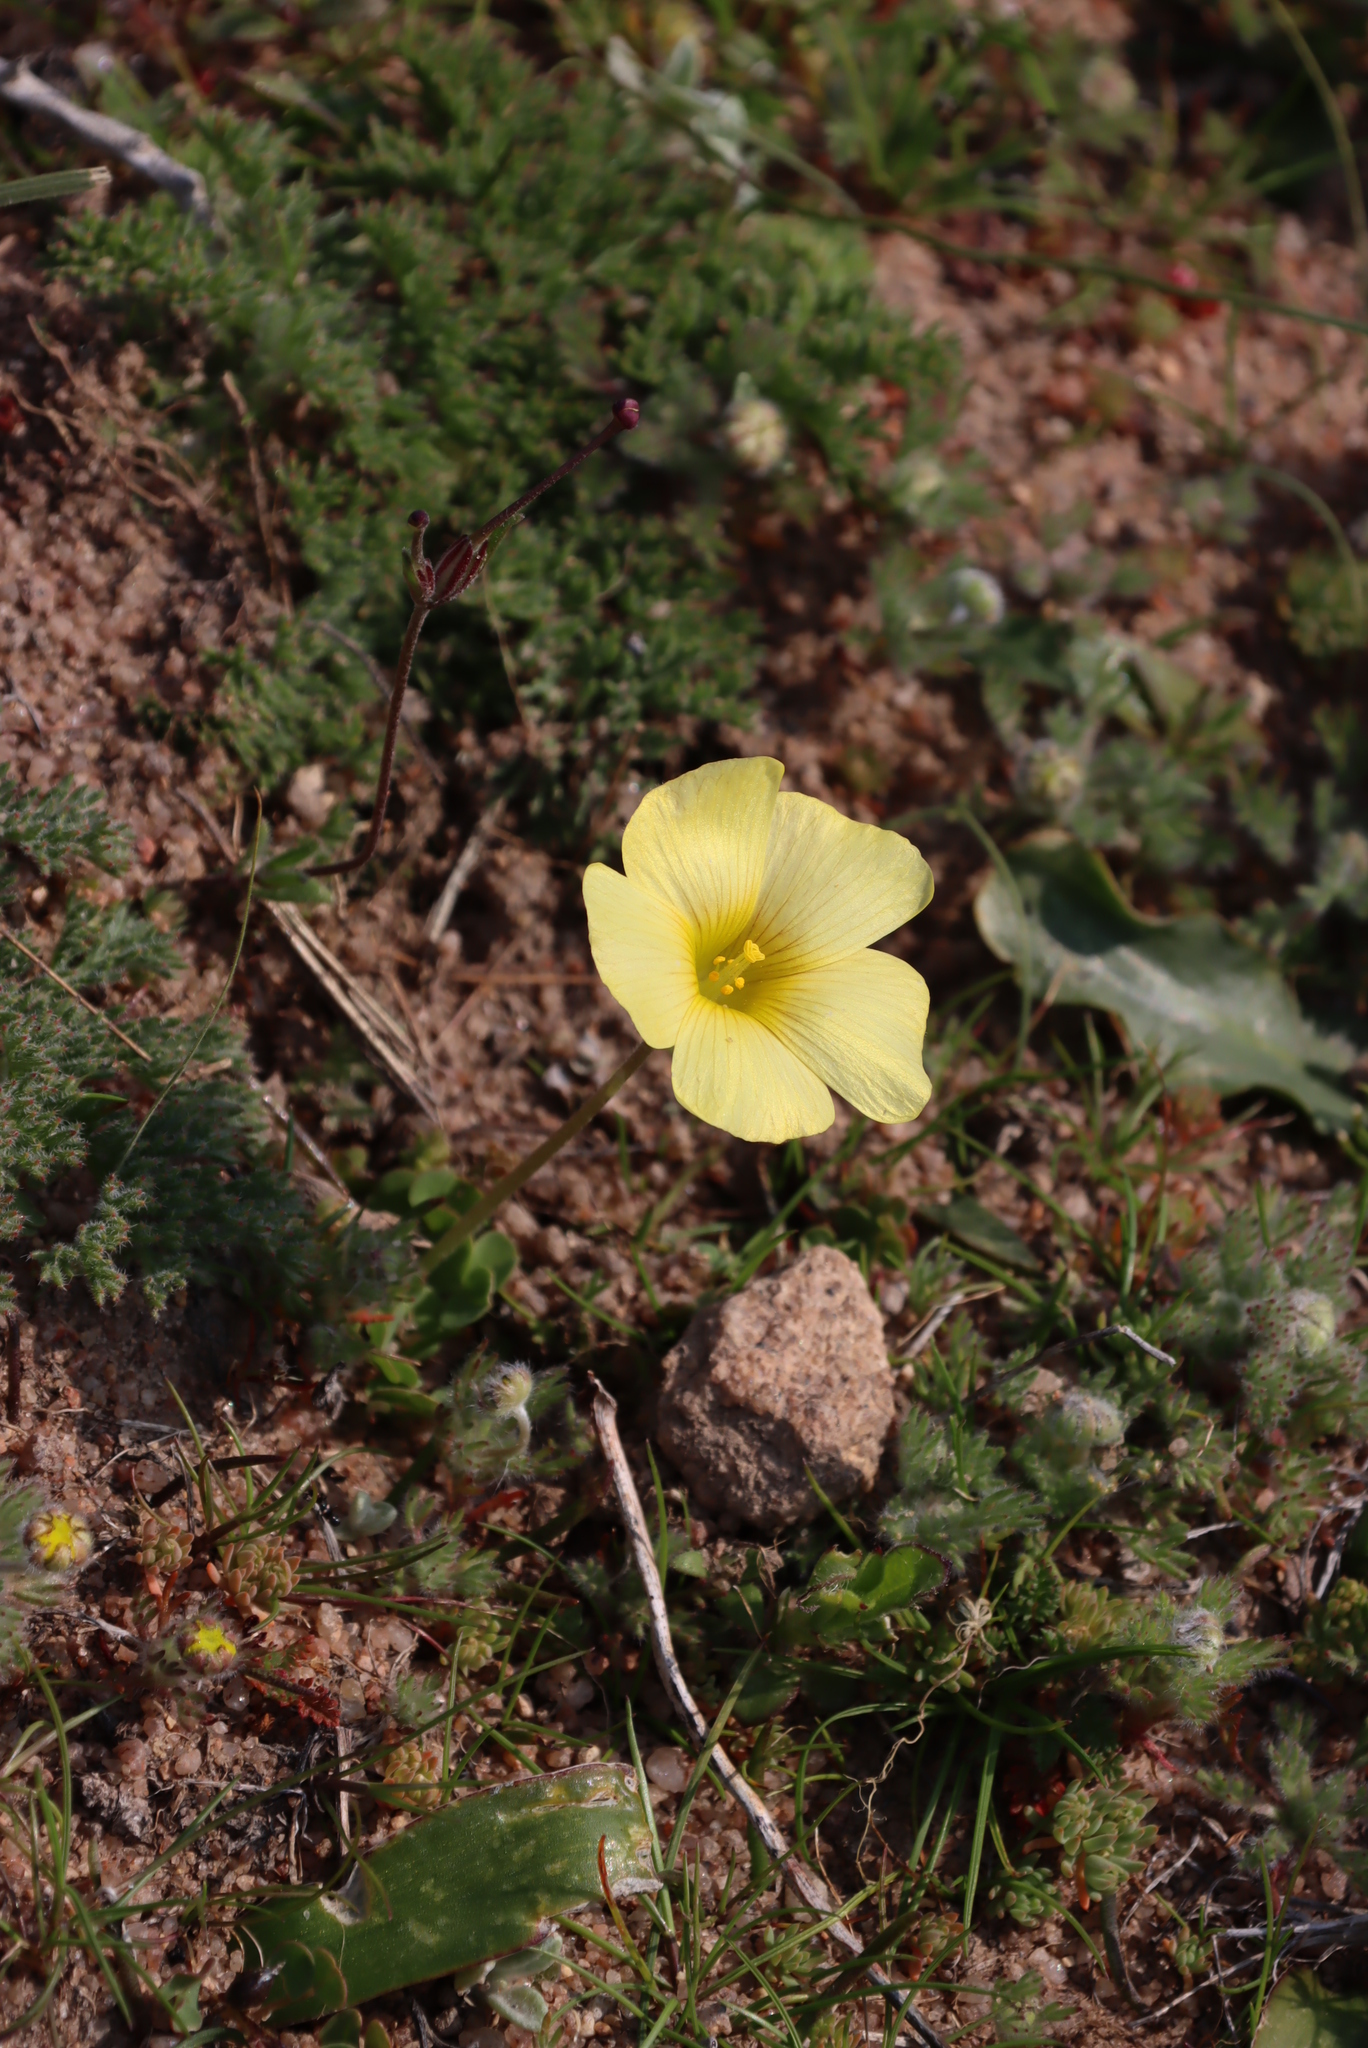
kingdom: Plantae
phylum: Tracheophyta
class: Magnoliopsida
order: Oxalidales
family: Oxalidaceae
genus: Oxalis
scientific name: Oxalis obtusa
